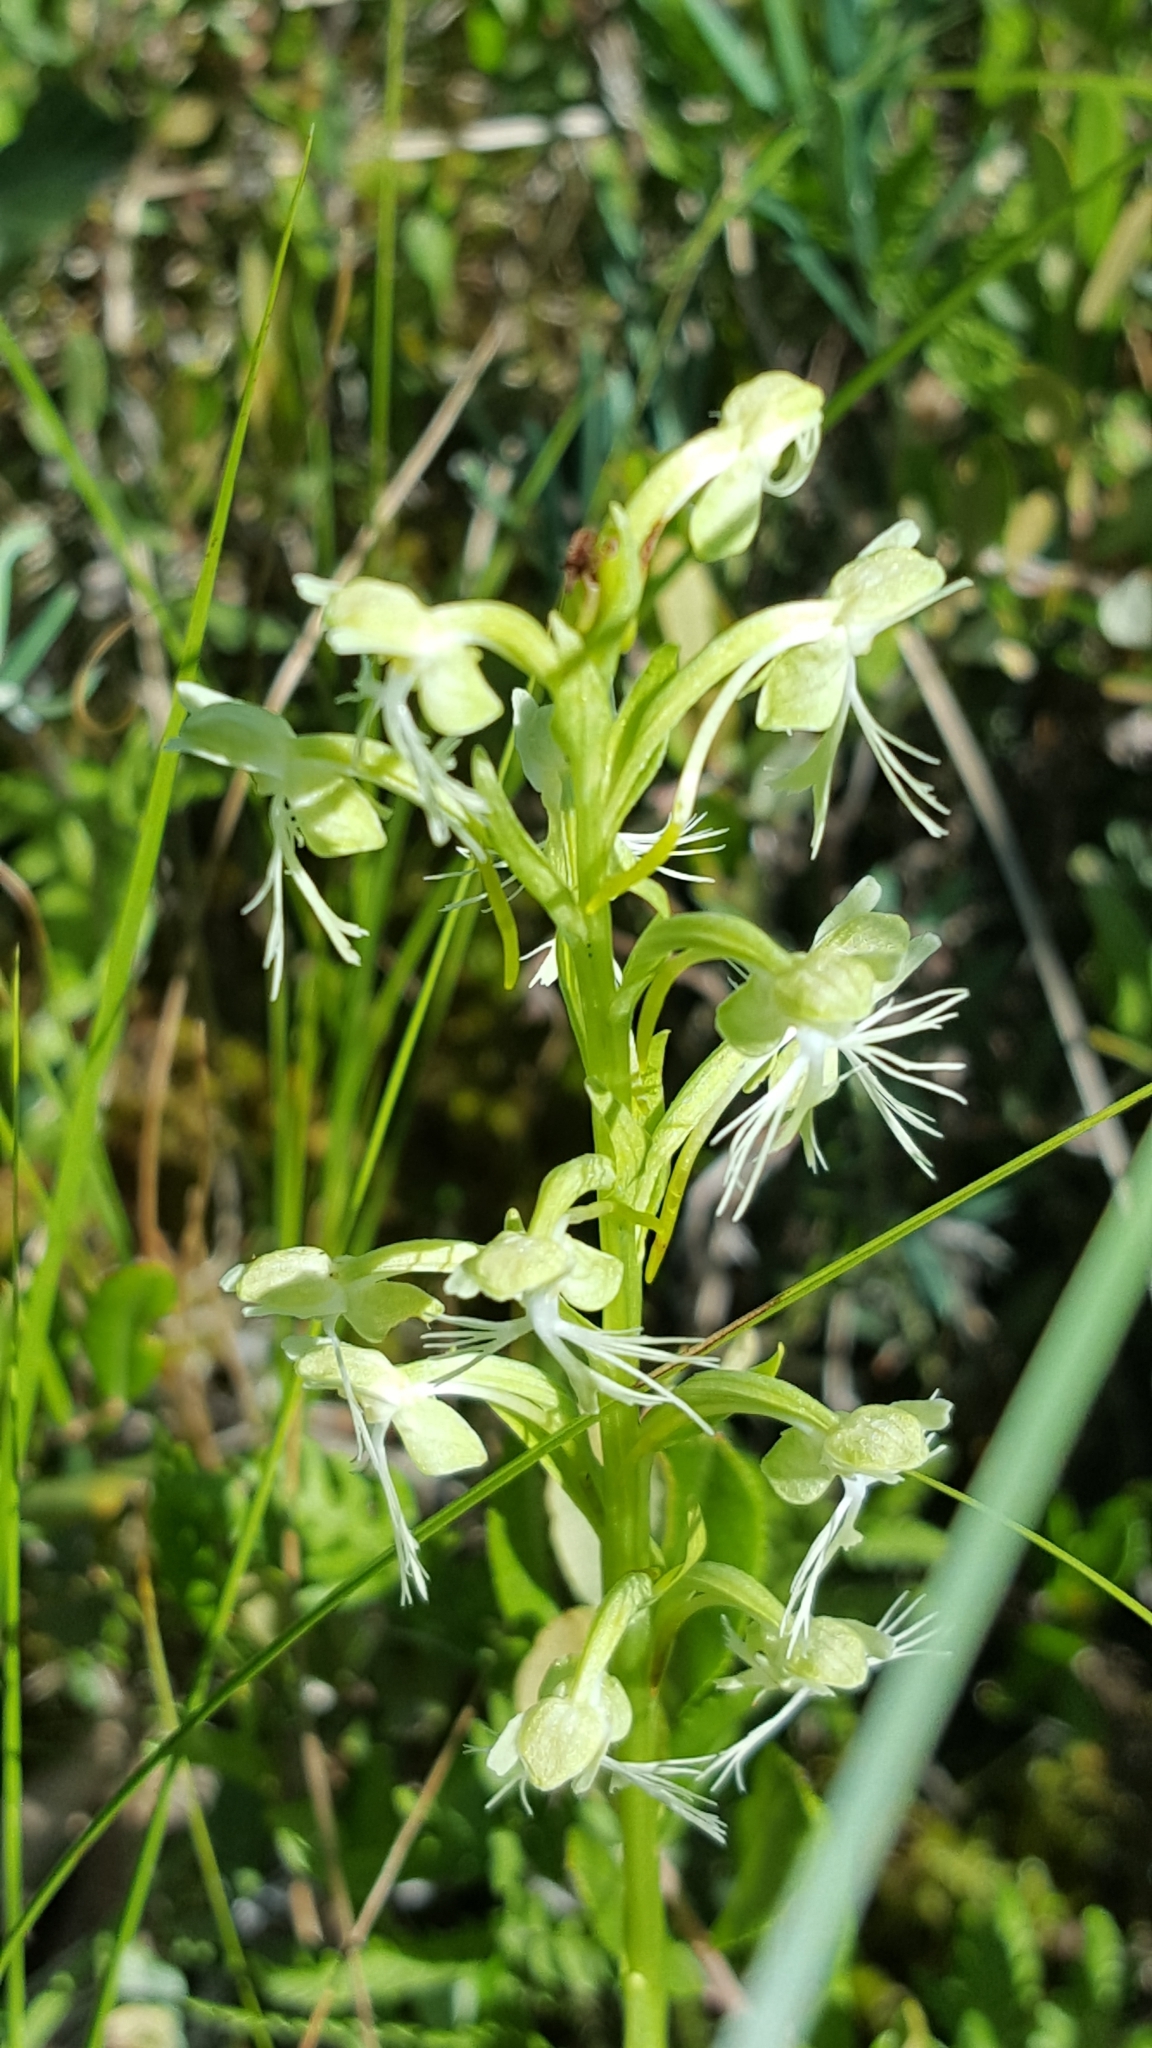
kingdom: Plantae
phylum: Tracheophyta
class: Liliopsida
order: Asparagales
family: Orchidaceae
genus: Platanthera
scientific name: Platanthera lacera
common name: Green fringed orchid
